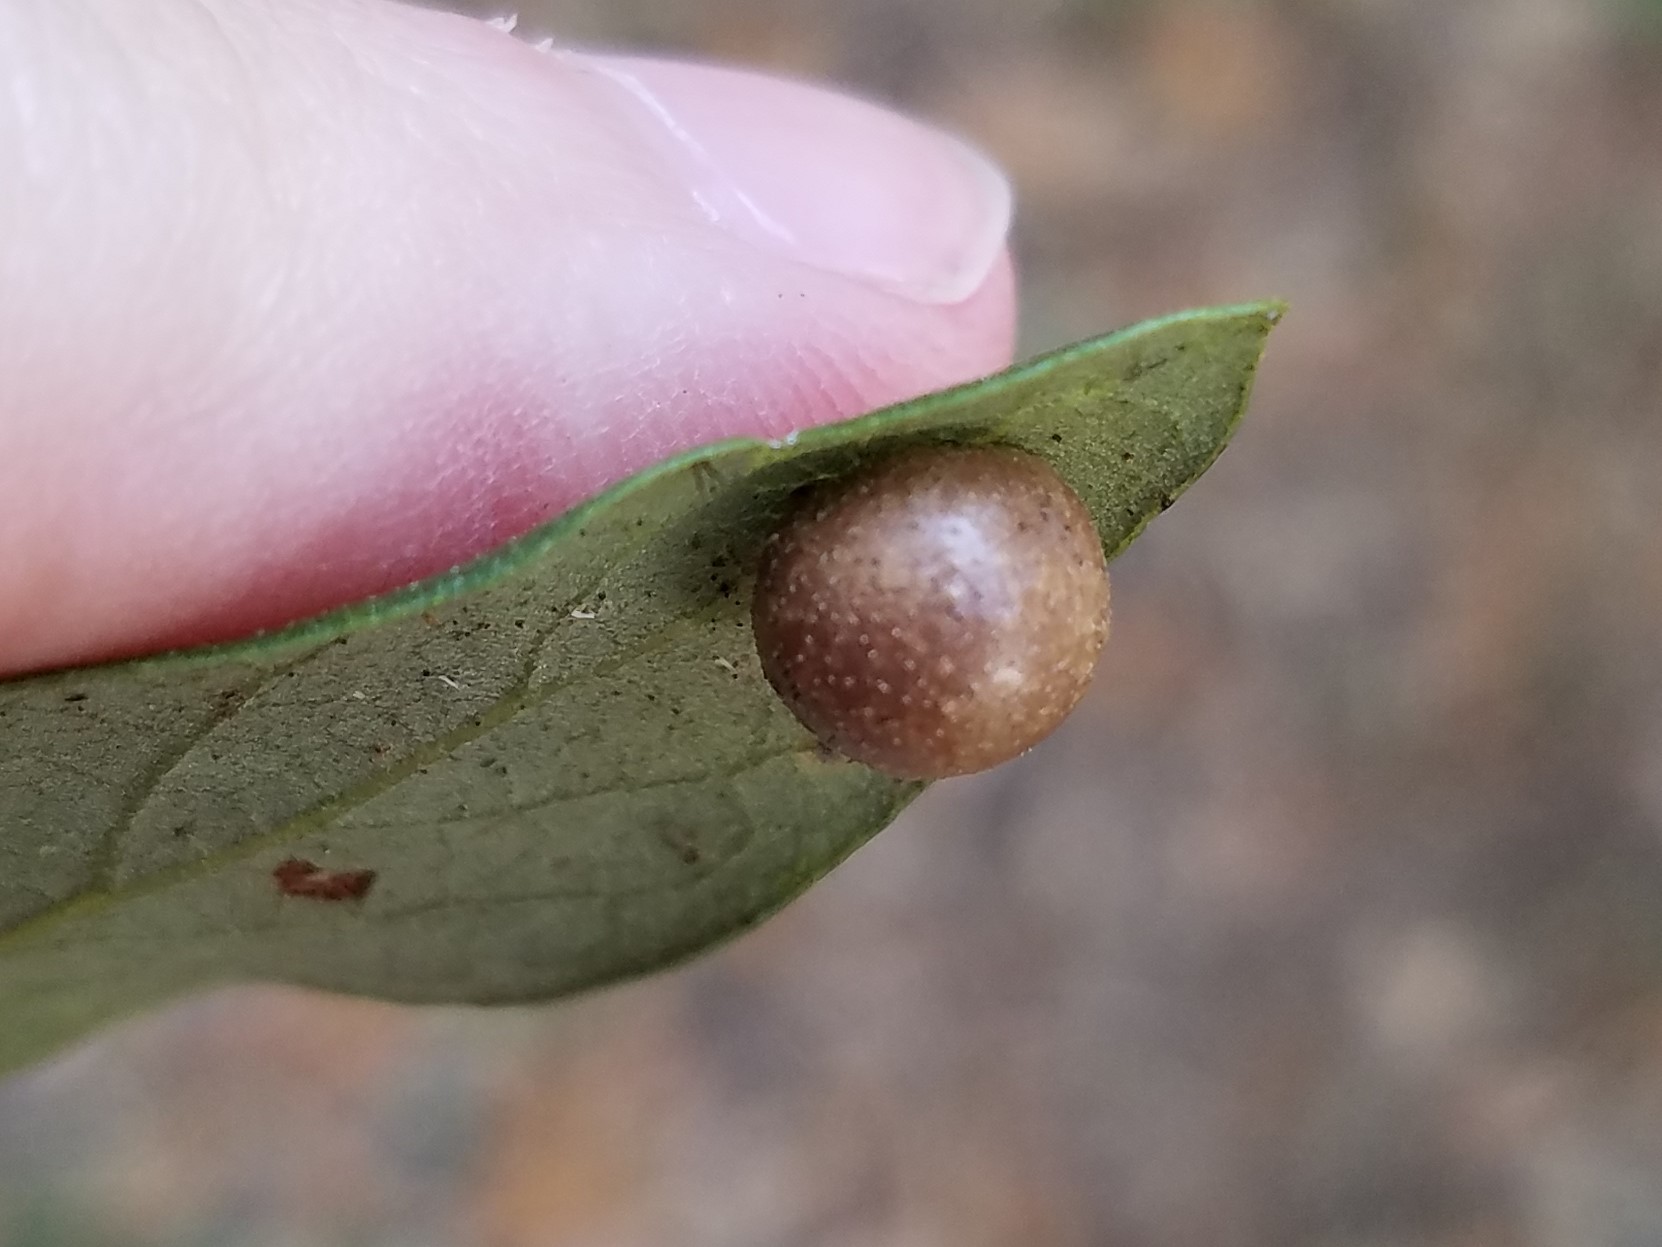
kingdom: Animalia
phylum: Arthropoda
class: Insecta
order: Hymenoptera
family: Cynipidae
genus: Belonocnema
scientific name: Belonocnema treatae
